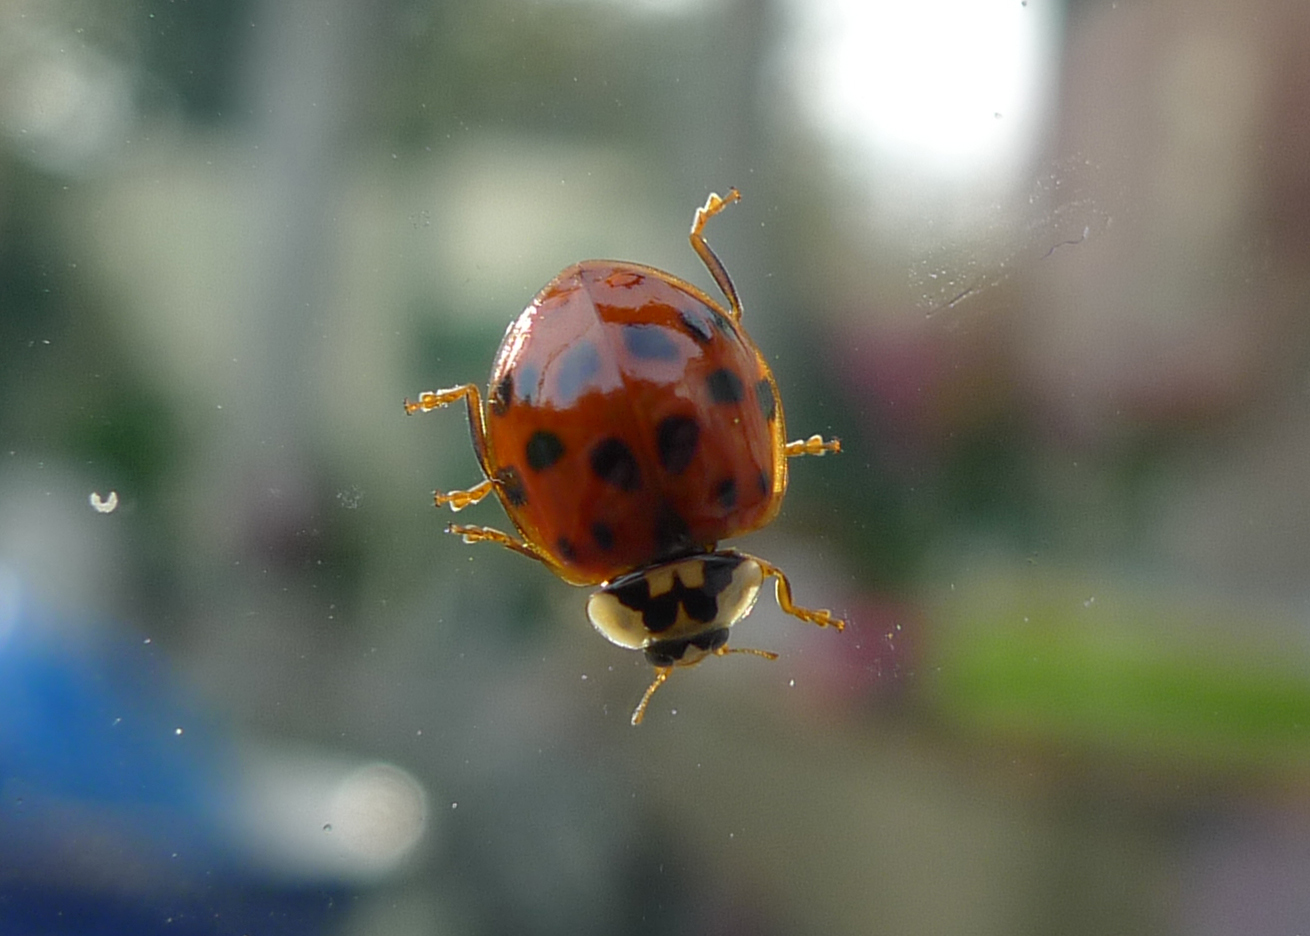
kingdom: Animalia
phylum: Arthropoda
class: Insecta
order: Coleoptera
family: Coccinellidae
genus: Harmonia
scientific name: Harmonia axyridis
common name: Harlequin ladybird
